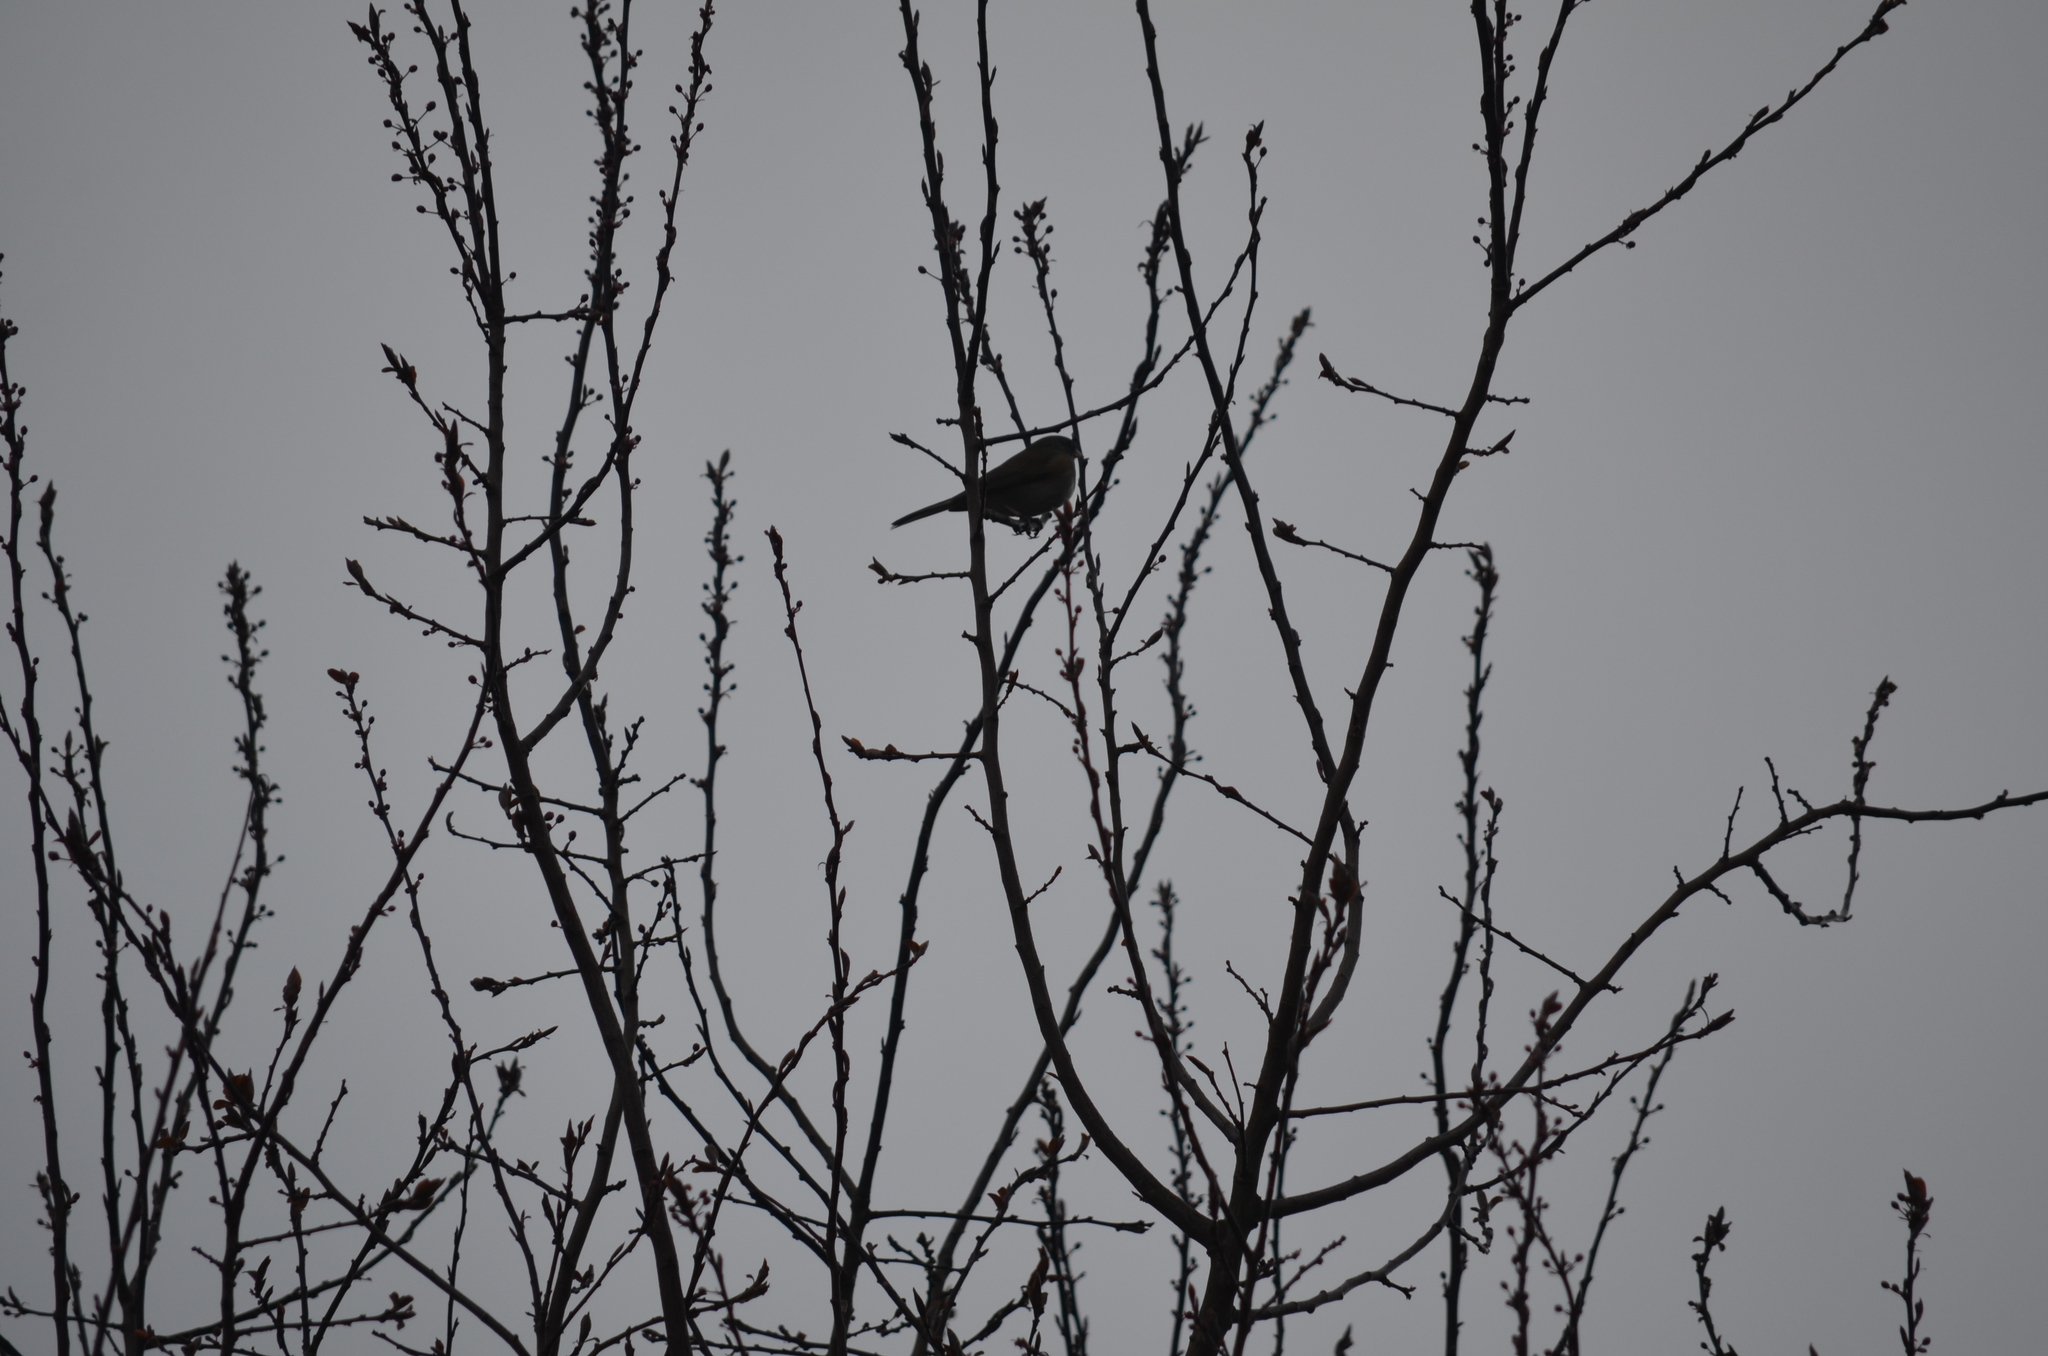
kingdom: Animalia
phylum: Chordata
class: Aves
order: Passeriformes
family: Passerellidae
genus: Junco
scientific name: Junco hyemalis
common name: Dark-eyed junco
